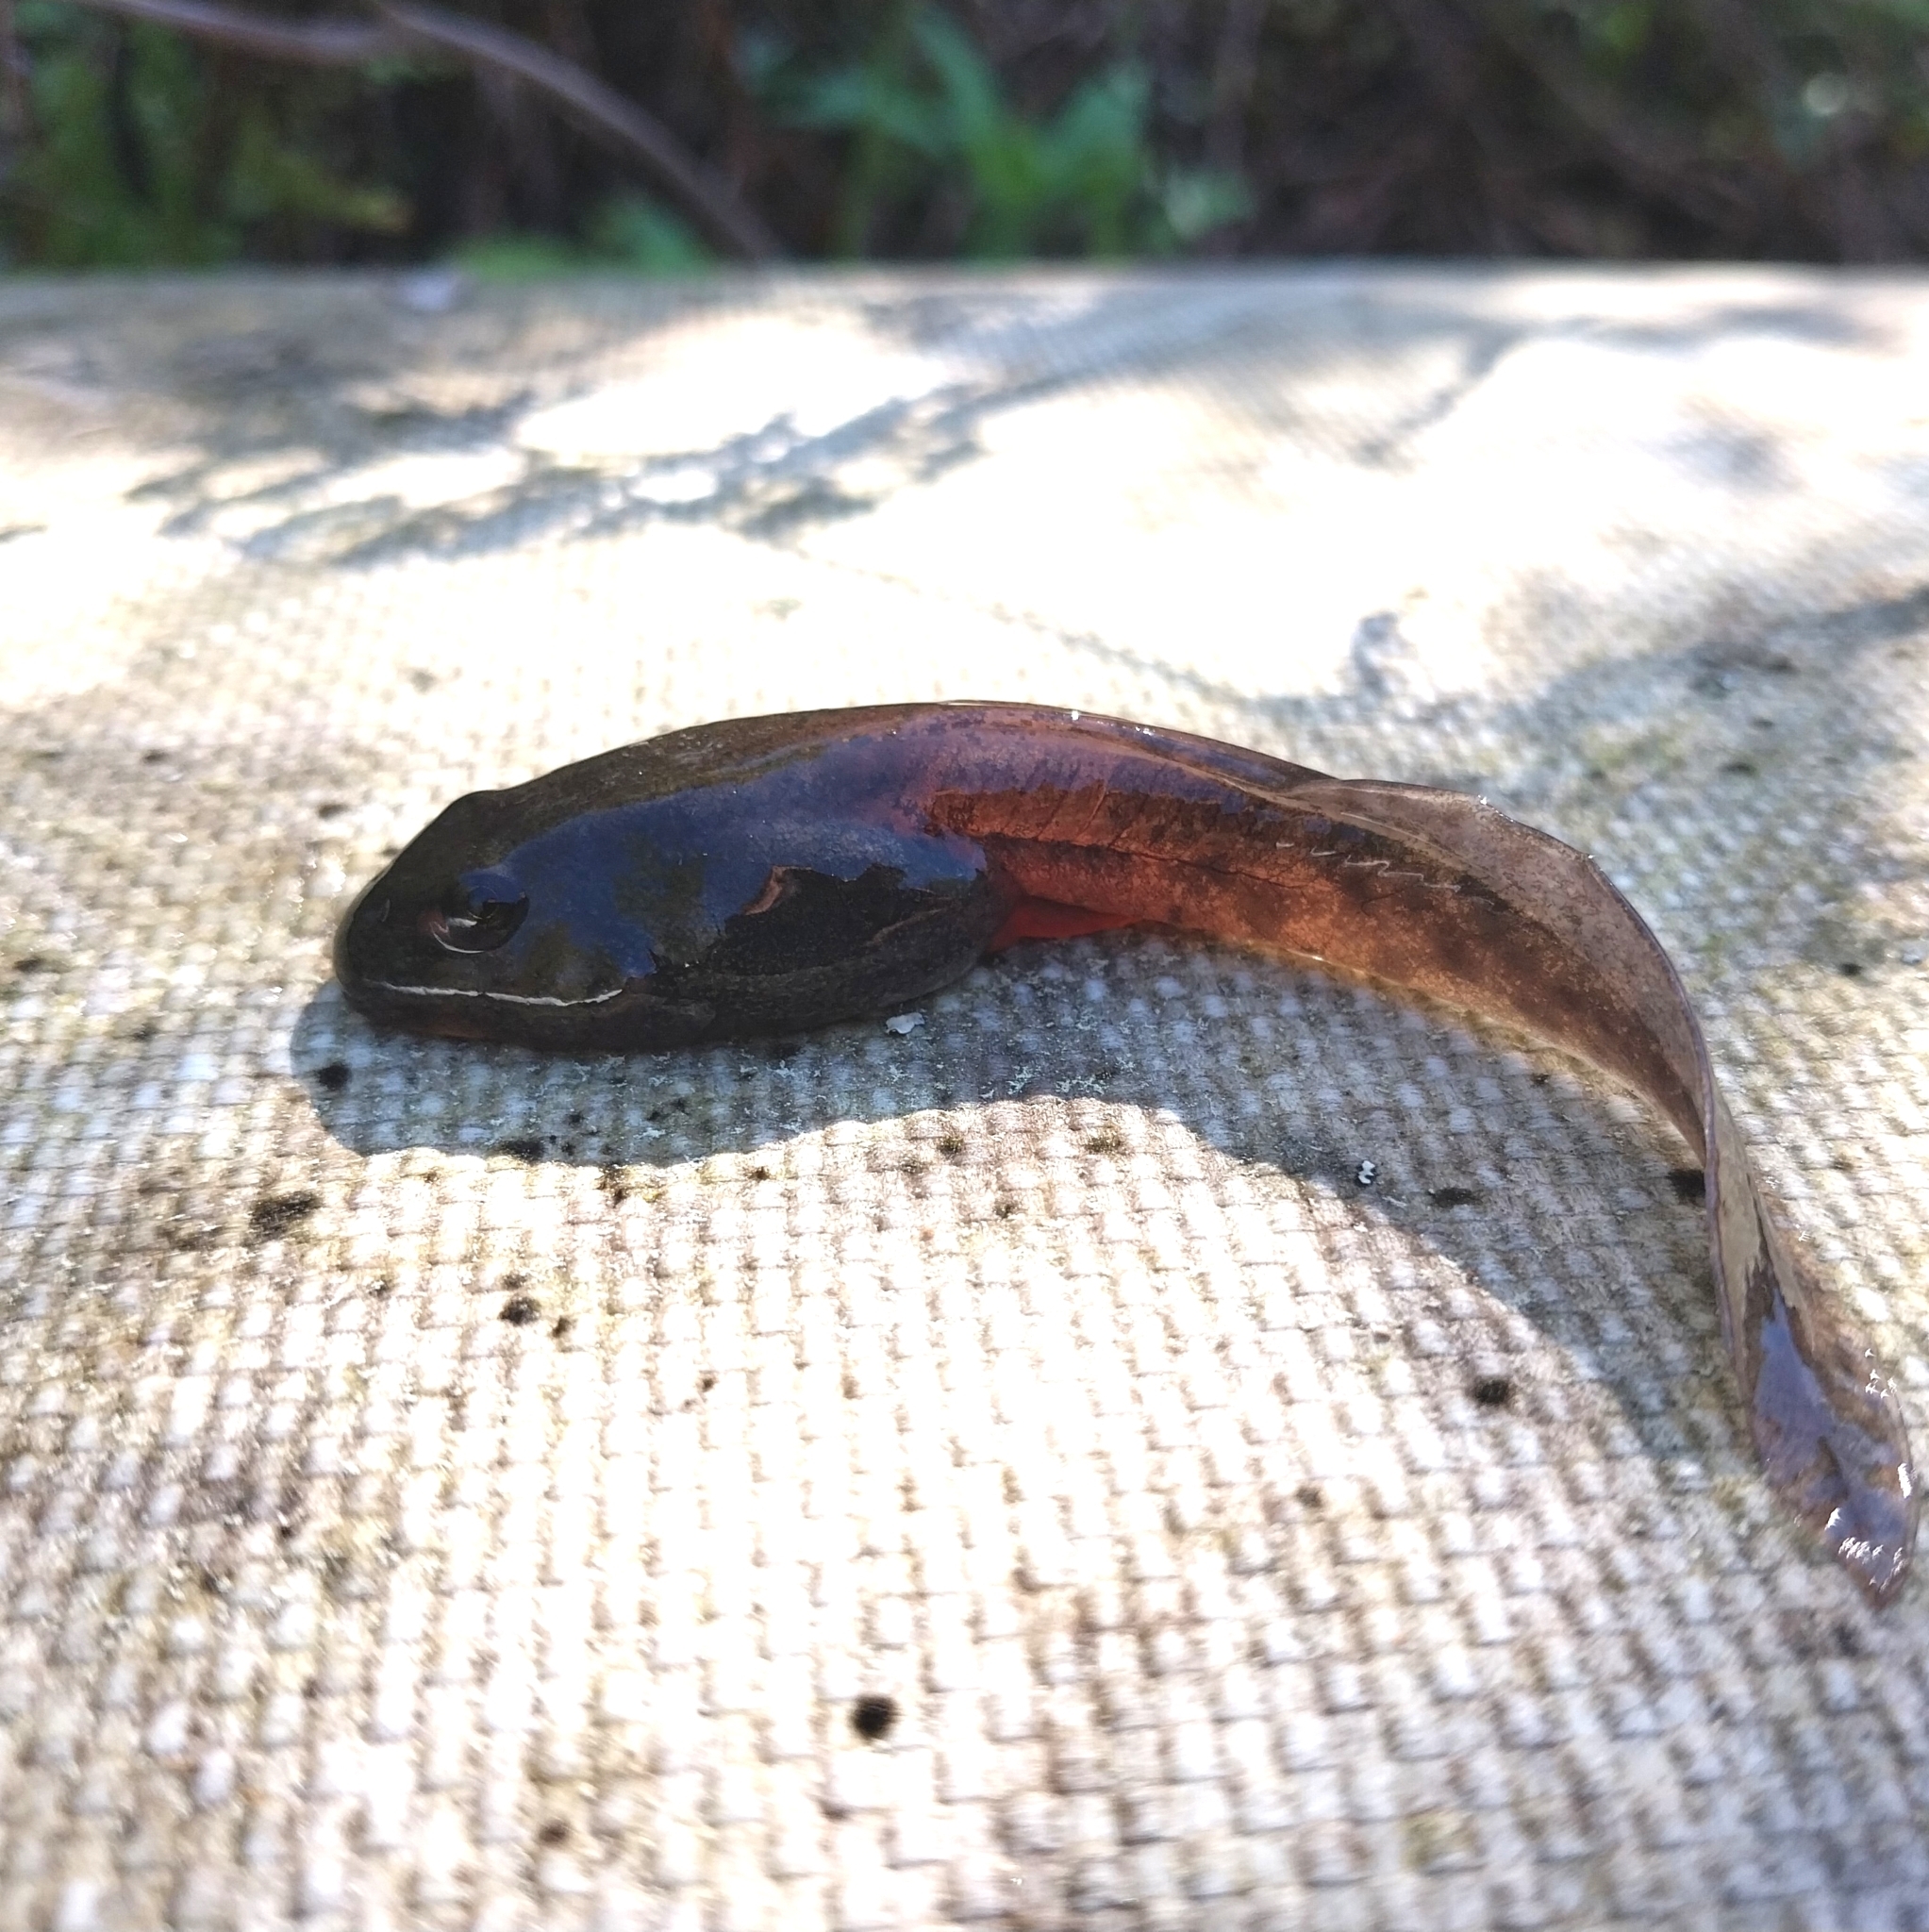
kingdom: Animalia
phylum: Chordata
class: Amphibia
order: Anura
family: Pyxicephalidae
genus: Amietia
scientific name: Amietia fuscigula
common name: Cape rana
